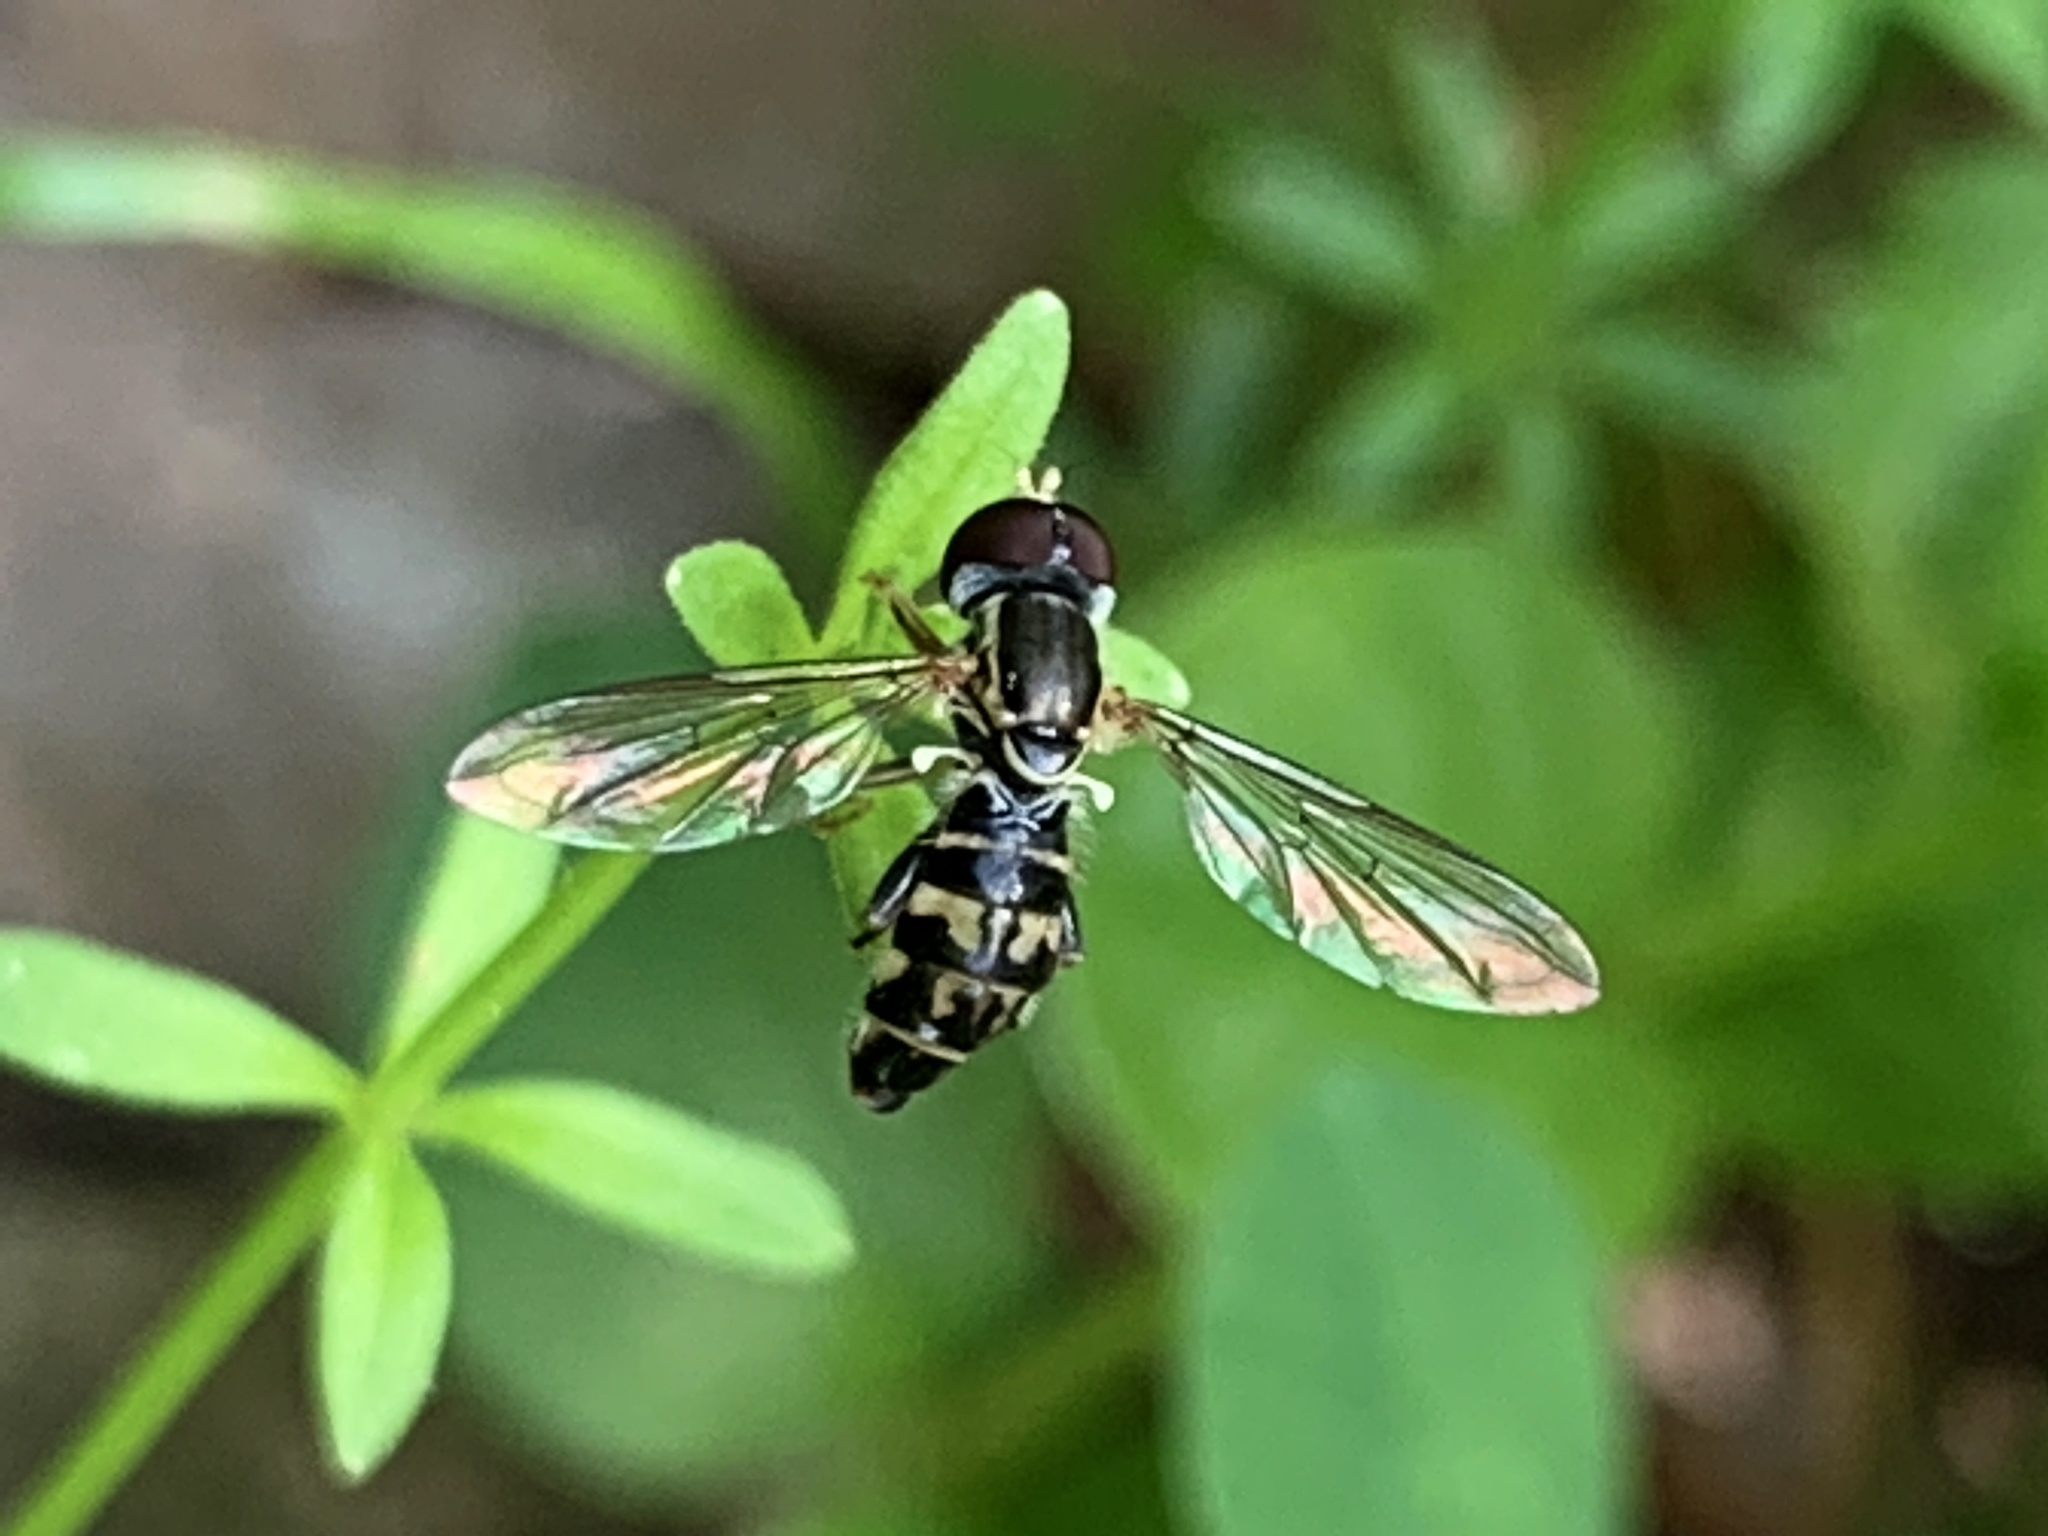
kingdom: Animalia
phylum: Arthropoda
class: Insecta
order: Diptera
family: Syrphidae
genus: Toxomerus
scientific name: Toxomerus geminatus
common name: Eastern calligrapher
